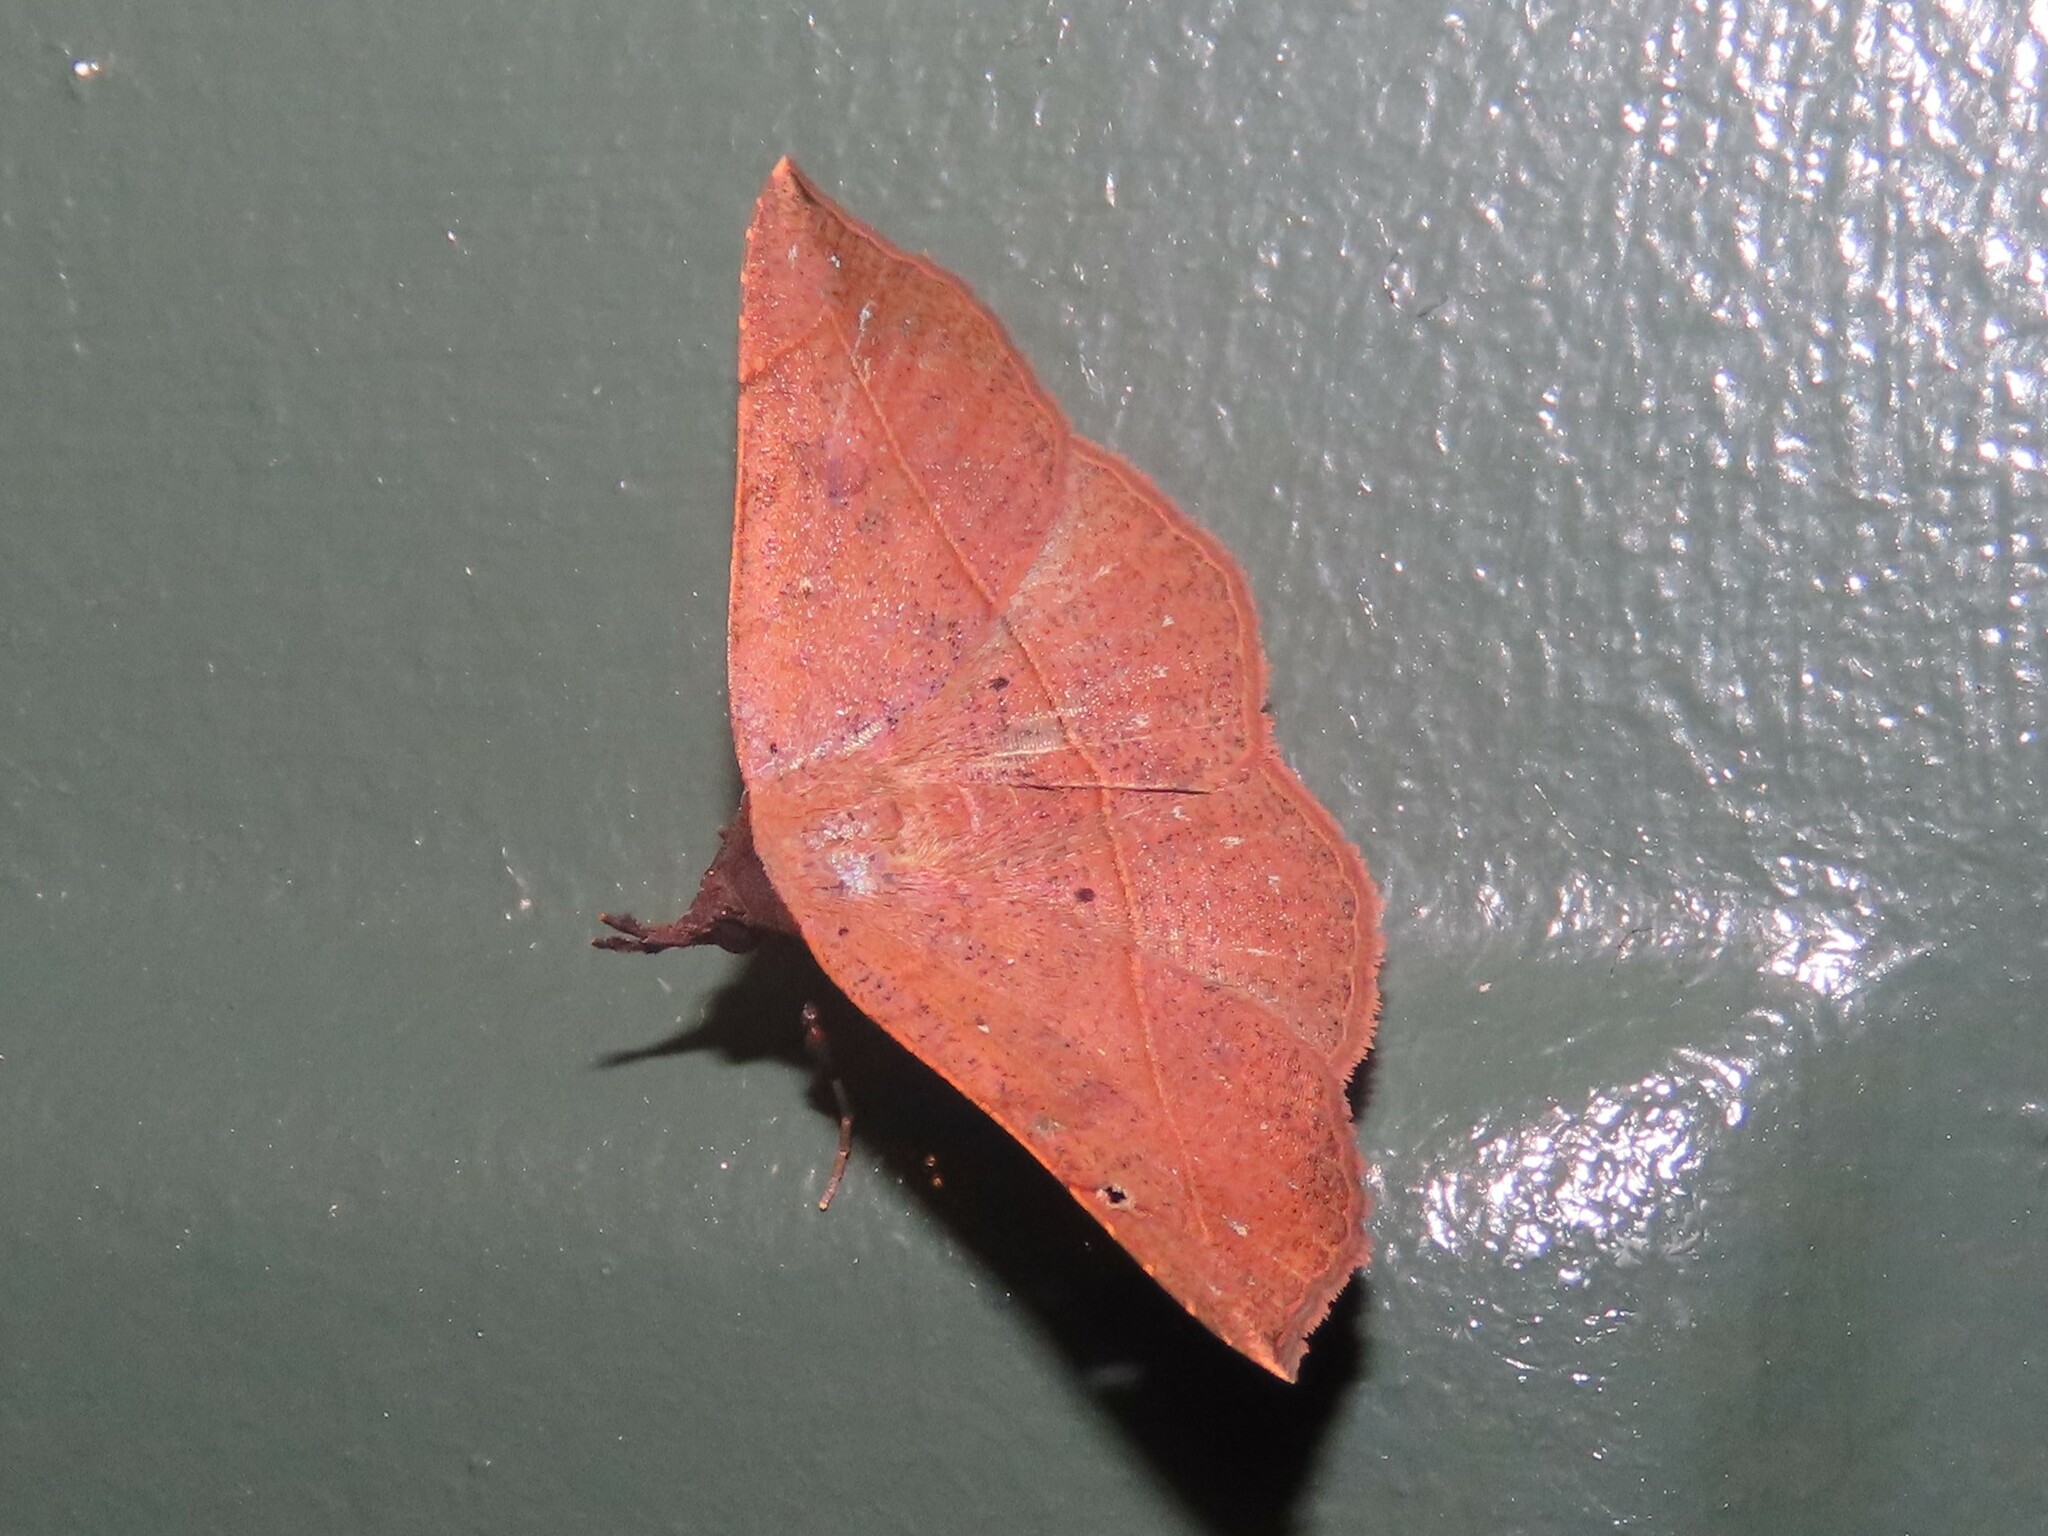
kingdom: Animalia
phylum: Arthropoda
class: Insecta
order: Lepidoptera
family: Erebidae
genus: Metallata
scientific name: Metallata absumens
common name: Brown leaf mimic
